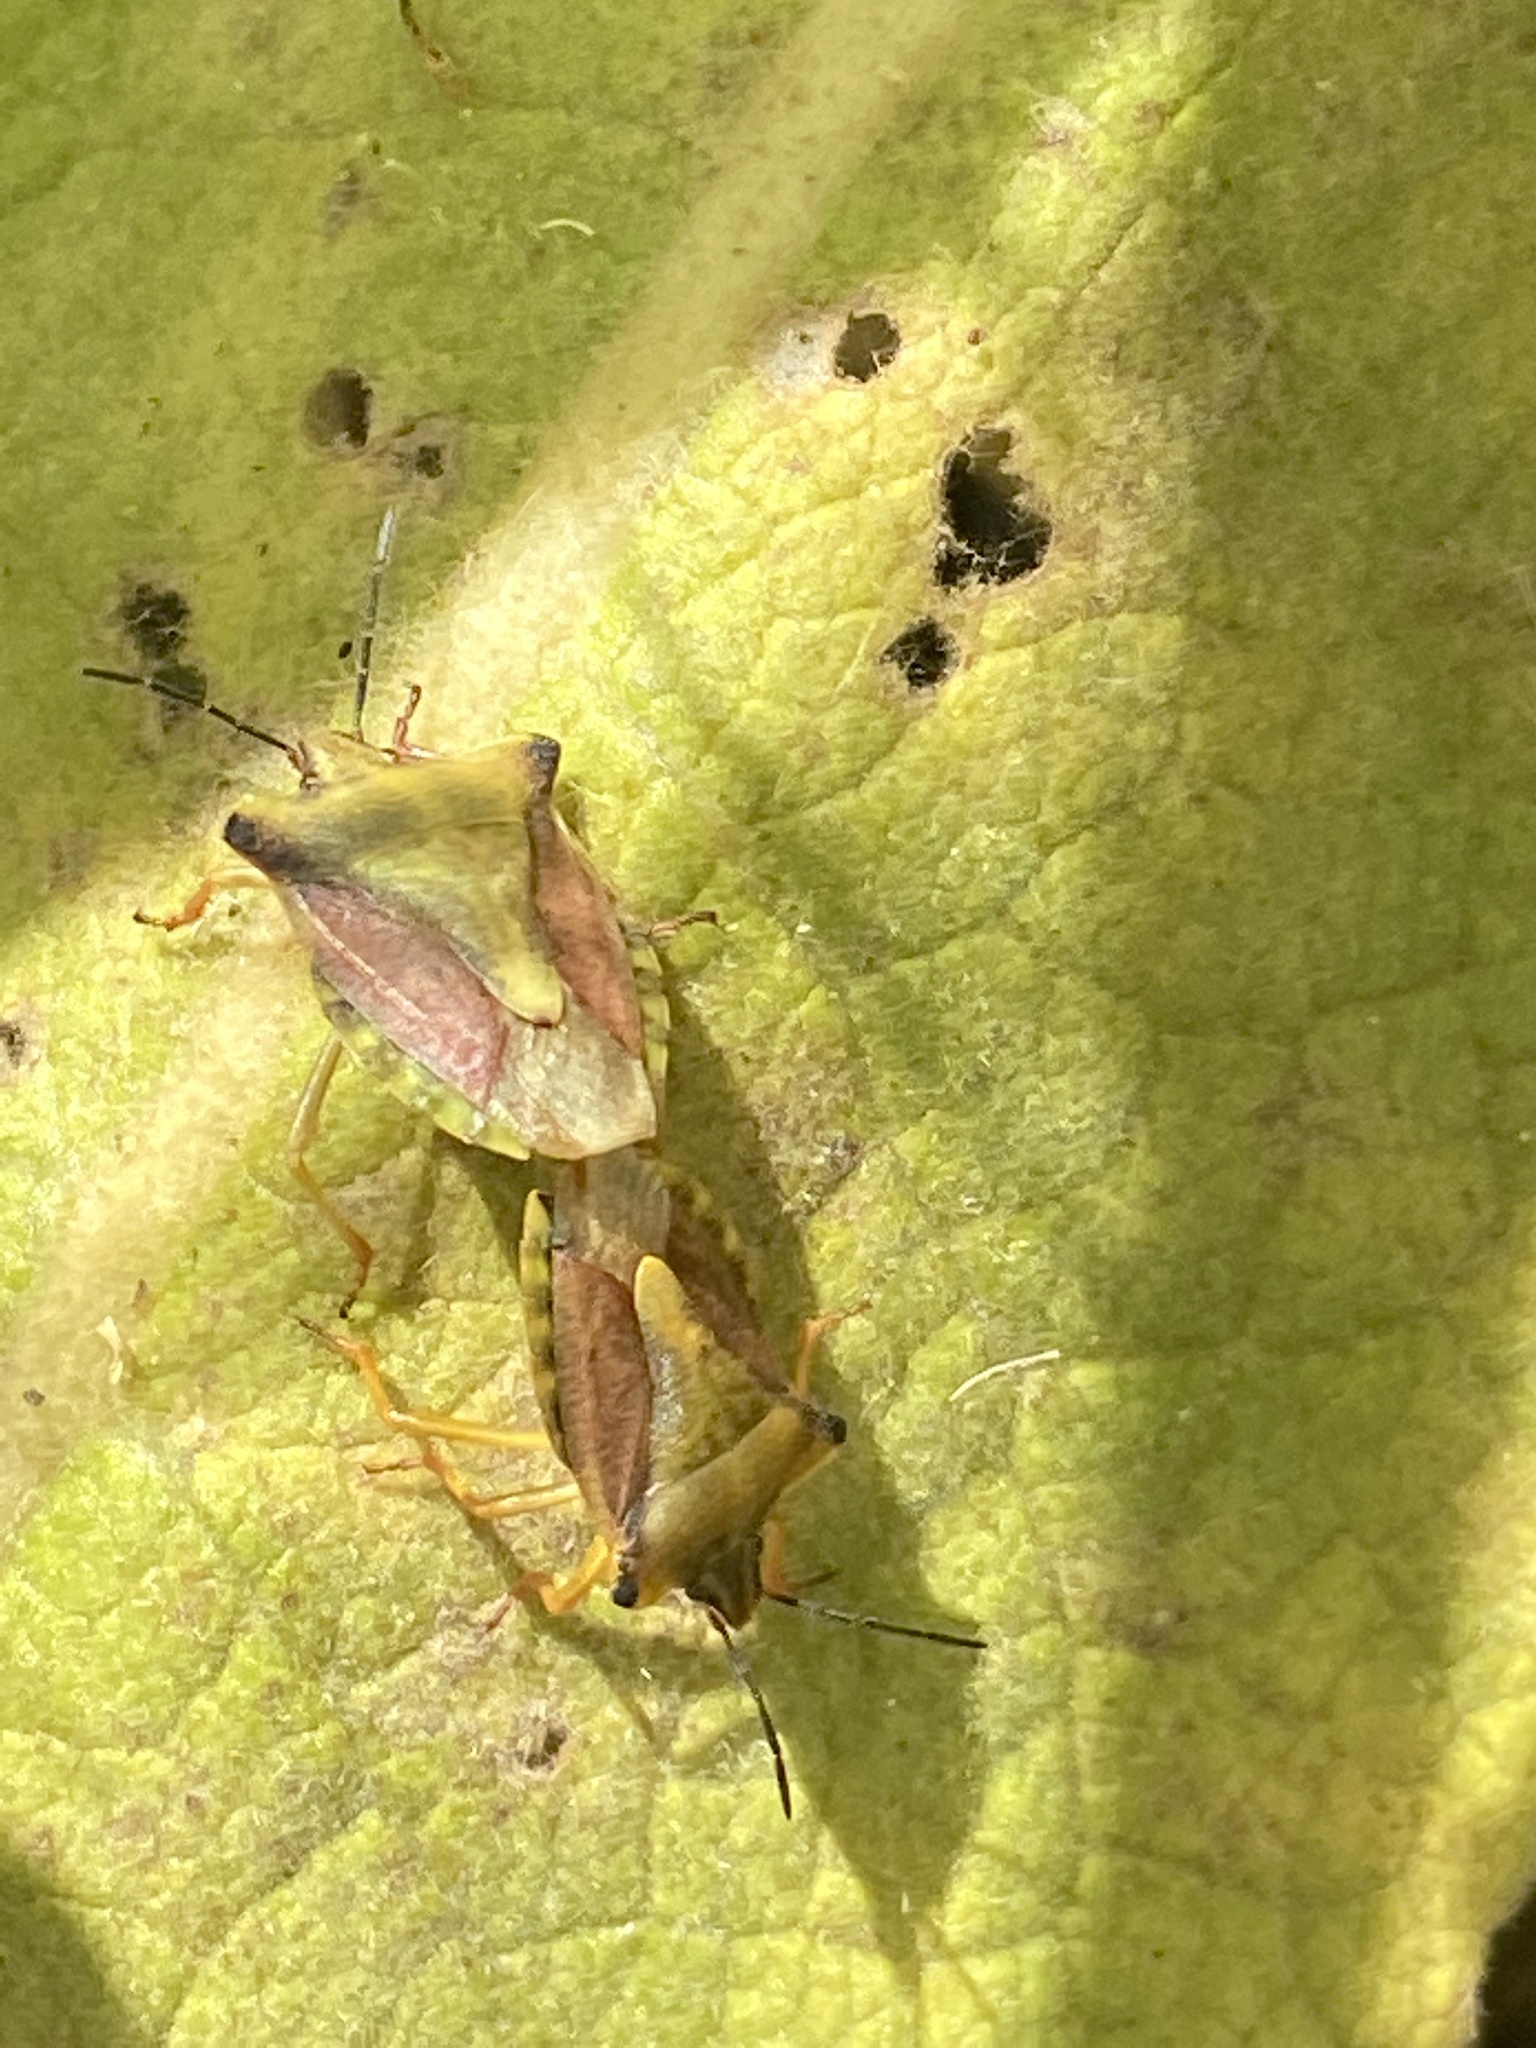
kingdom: Animalia
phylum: Arthropoda
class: Insecta
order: Hemiptera
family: Pentatomidae
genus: Carpocoris
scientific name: Carpocoris fuscispinus
